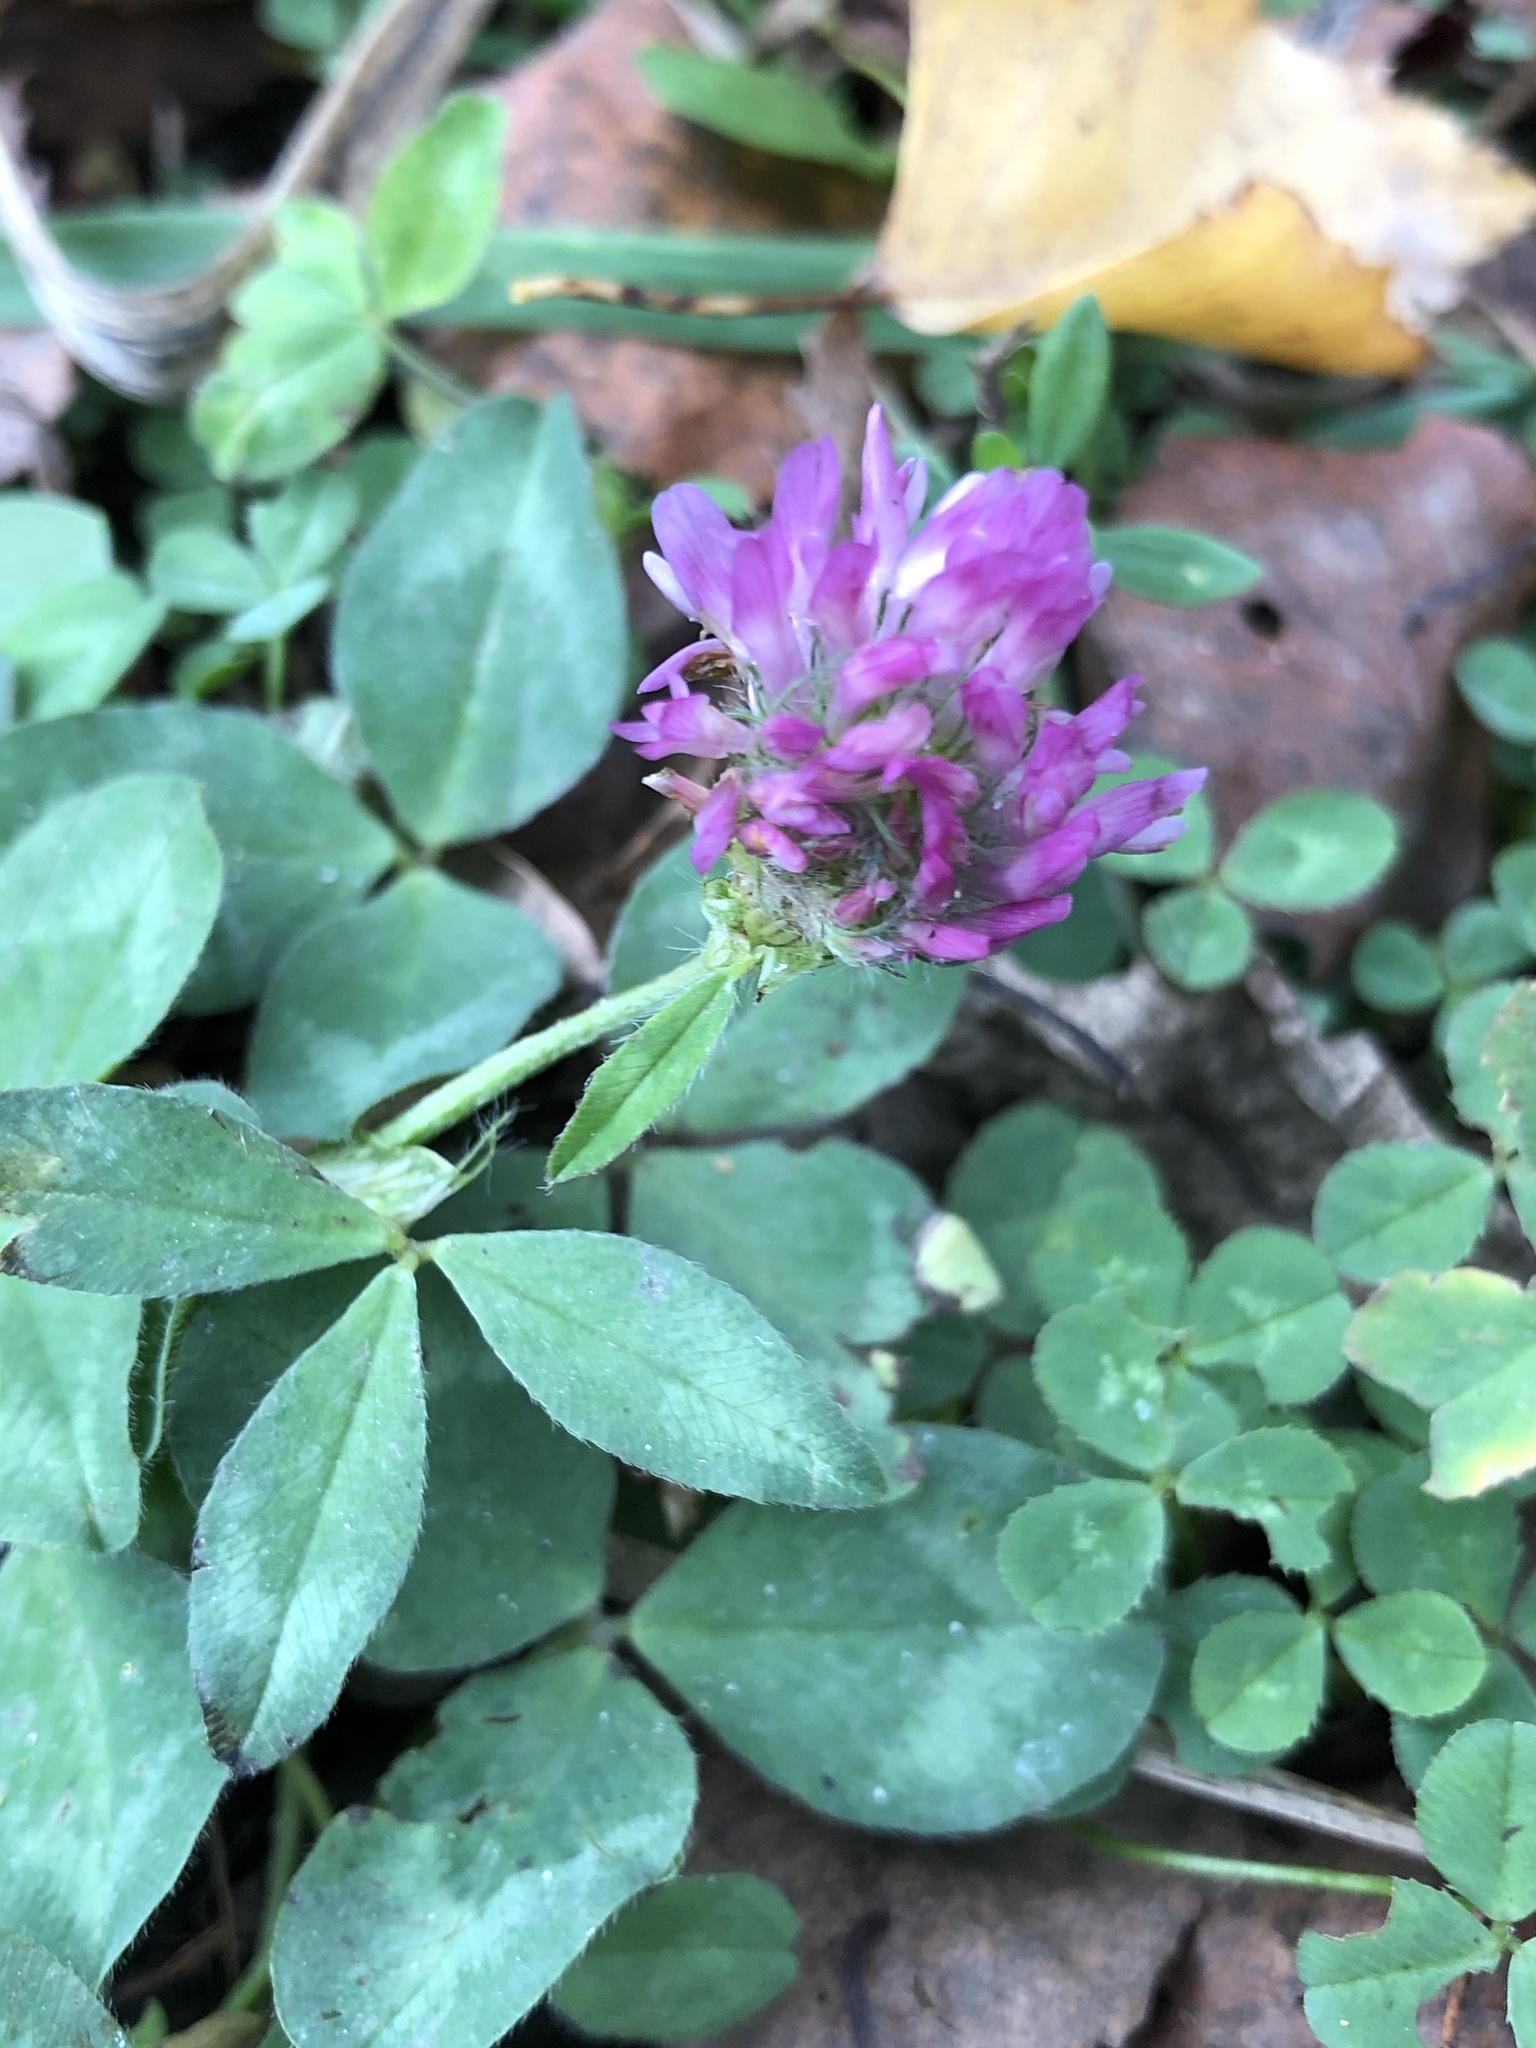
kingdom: Plantae
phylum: Tracheophyta
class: Magnoliopsida
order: Fabales
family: Fabaceae
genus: Trifolium
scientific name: Trifolium pratense
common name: Red clover
